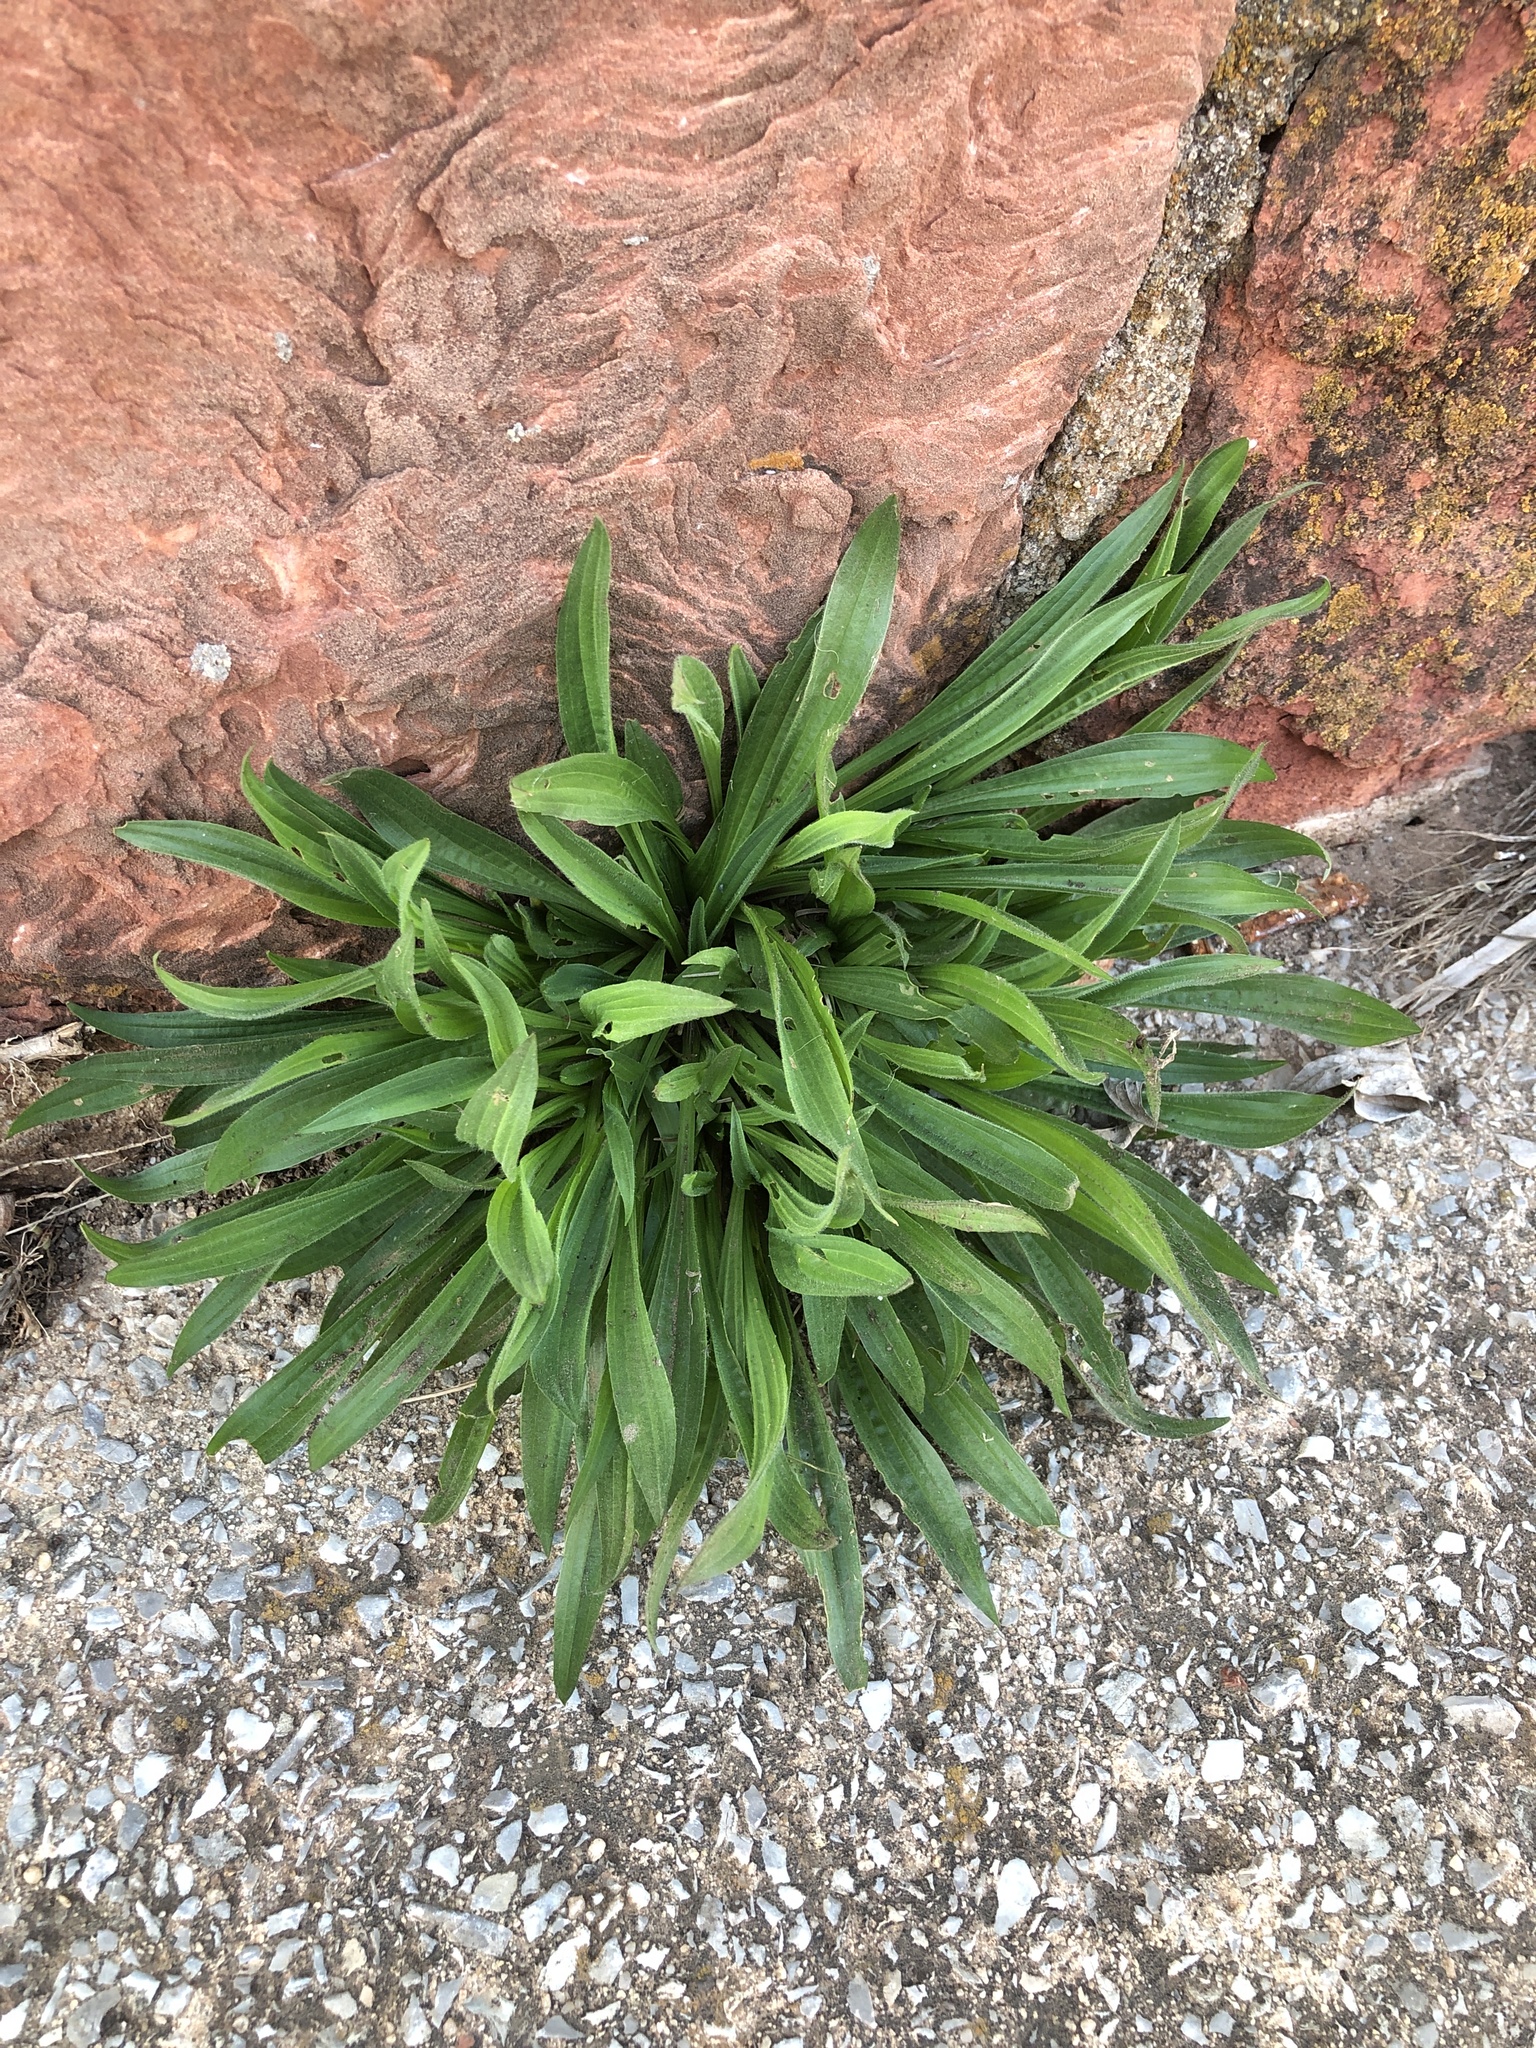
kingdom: Plantae
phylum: Tracheophyta
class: Magnoliopsida
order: Lamiales
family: Plantaginaceae
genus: Plantago
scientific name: Plantago lanceolata
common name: Ribwort plantain
